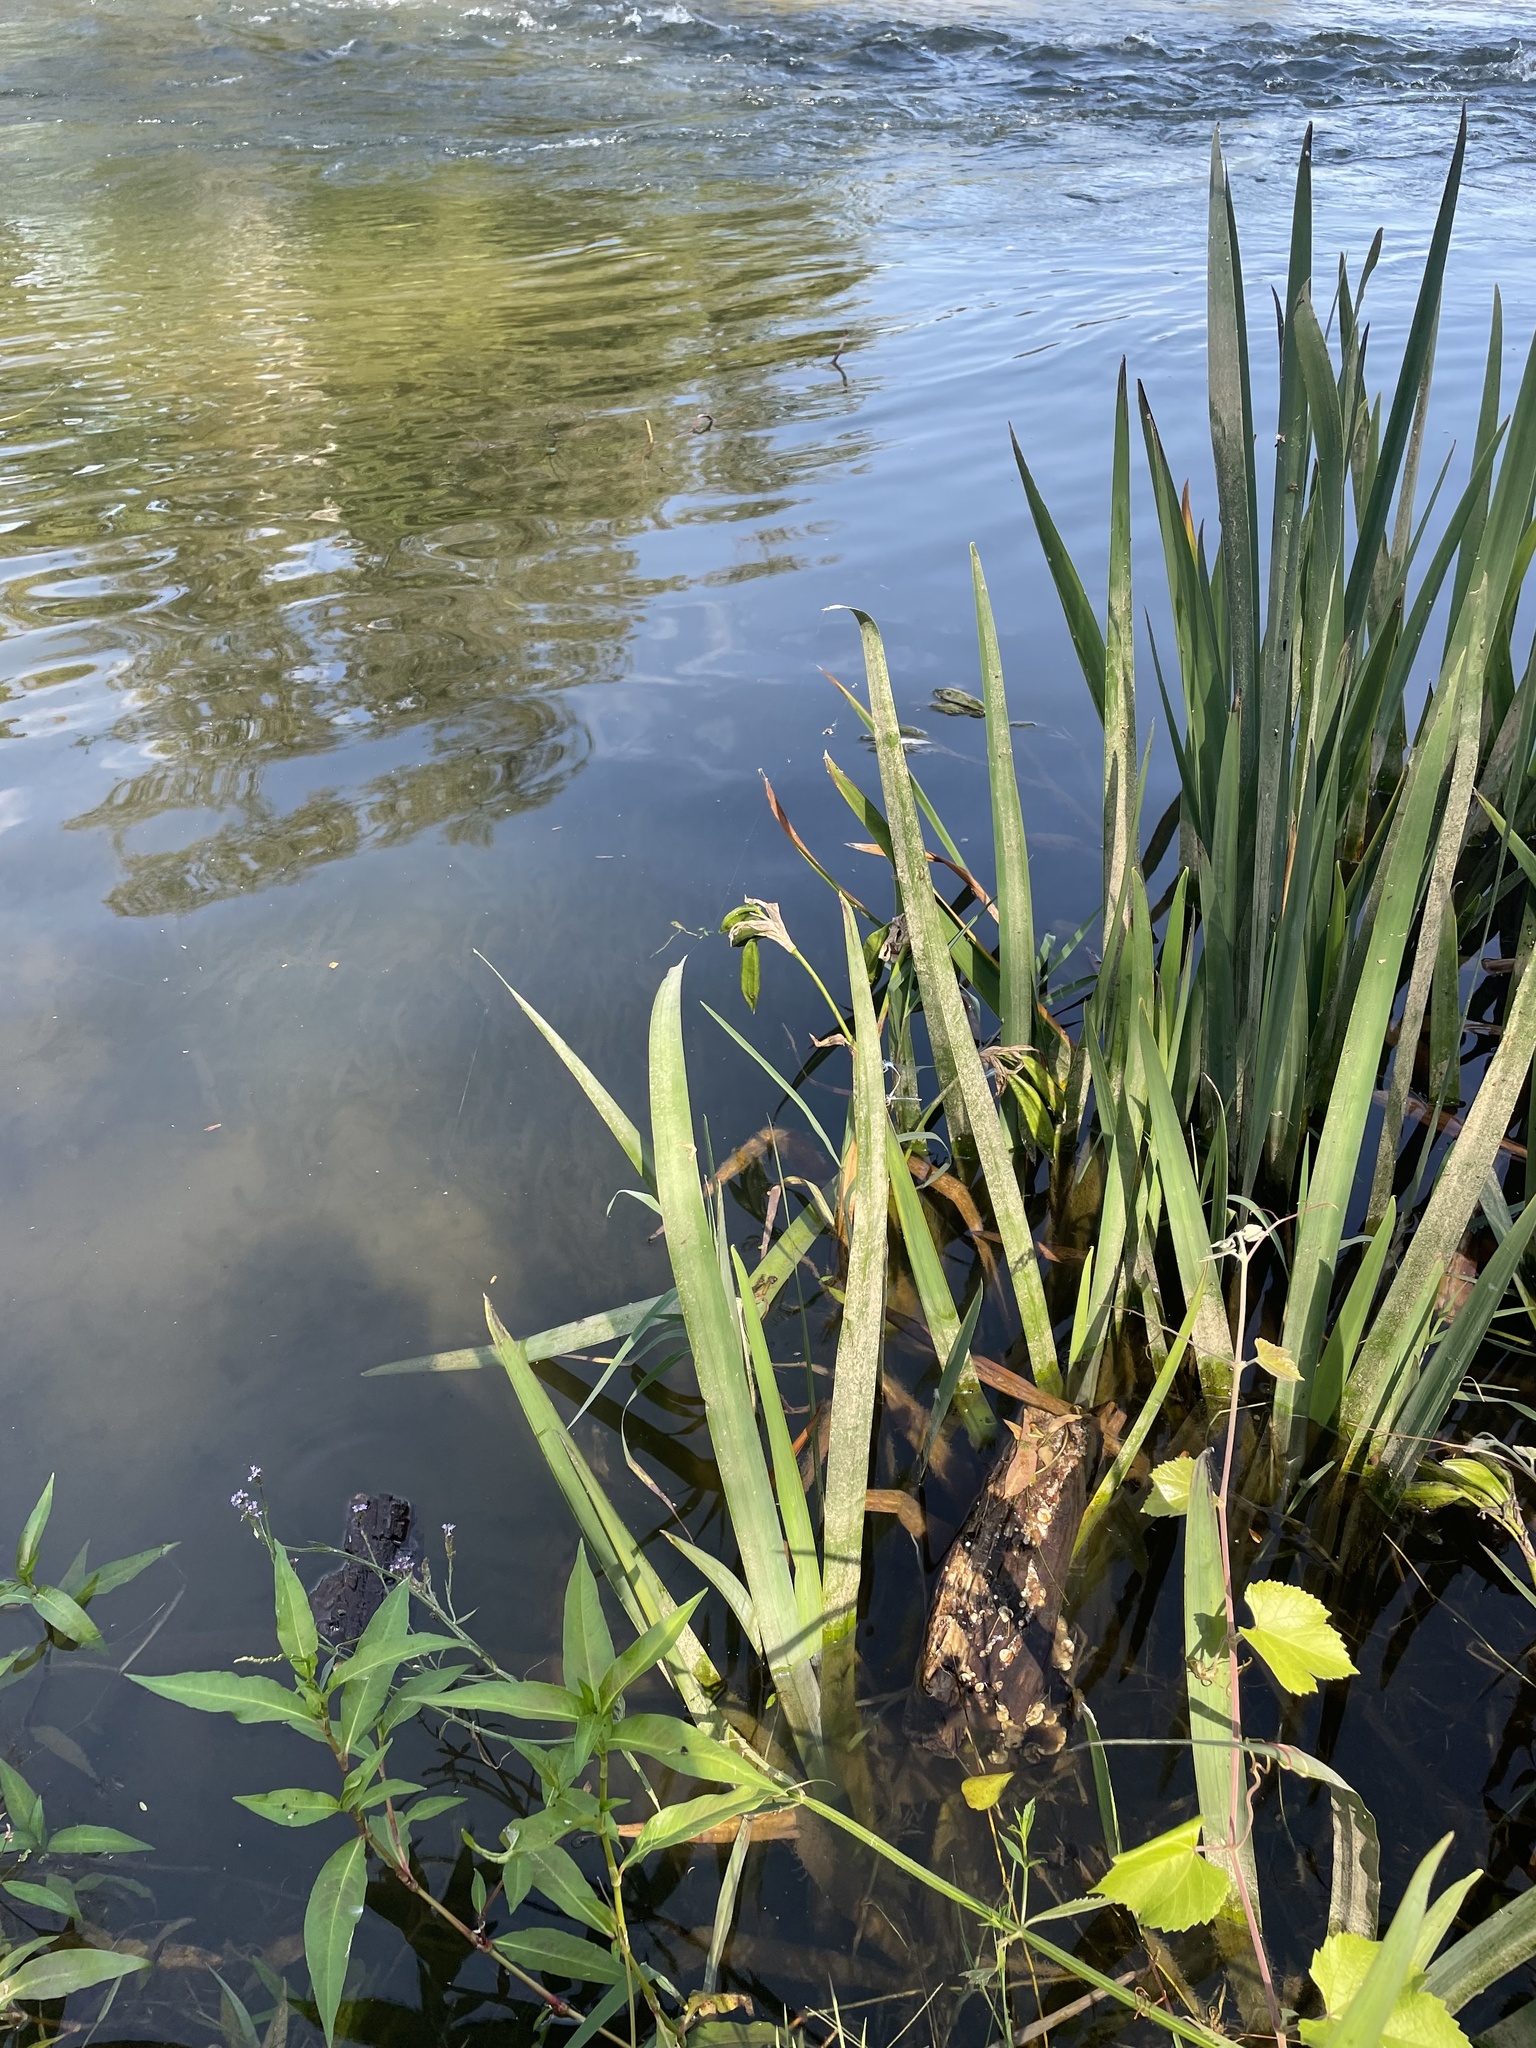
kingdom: Plantae
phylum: Tracheophyta
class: Liliopsida
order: Asparagales
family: Iridaceae
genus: Iris
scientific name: Iris pseudacorus
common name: Yellow flag
